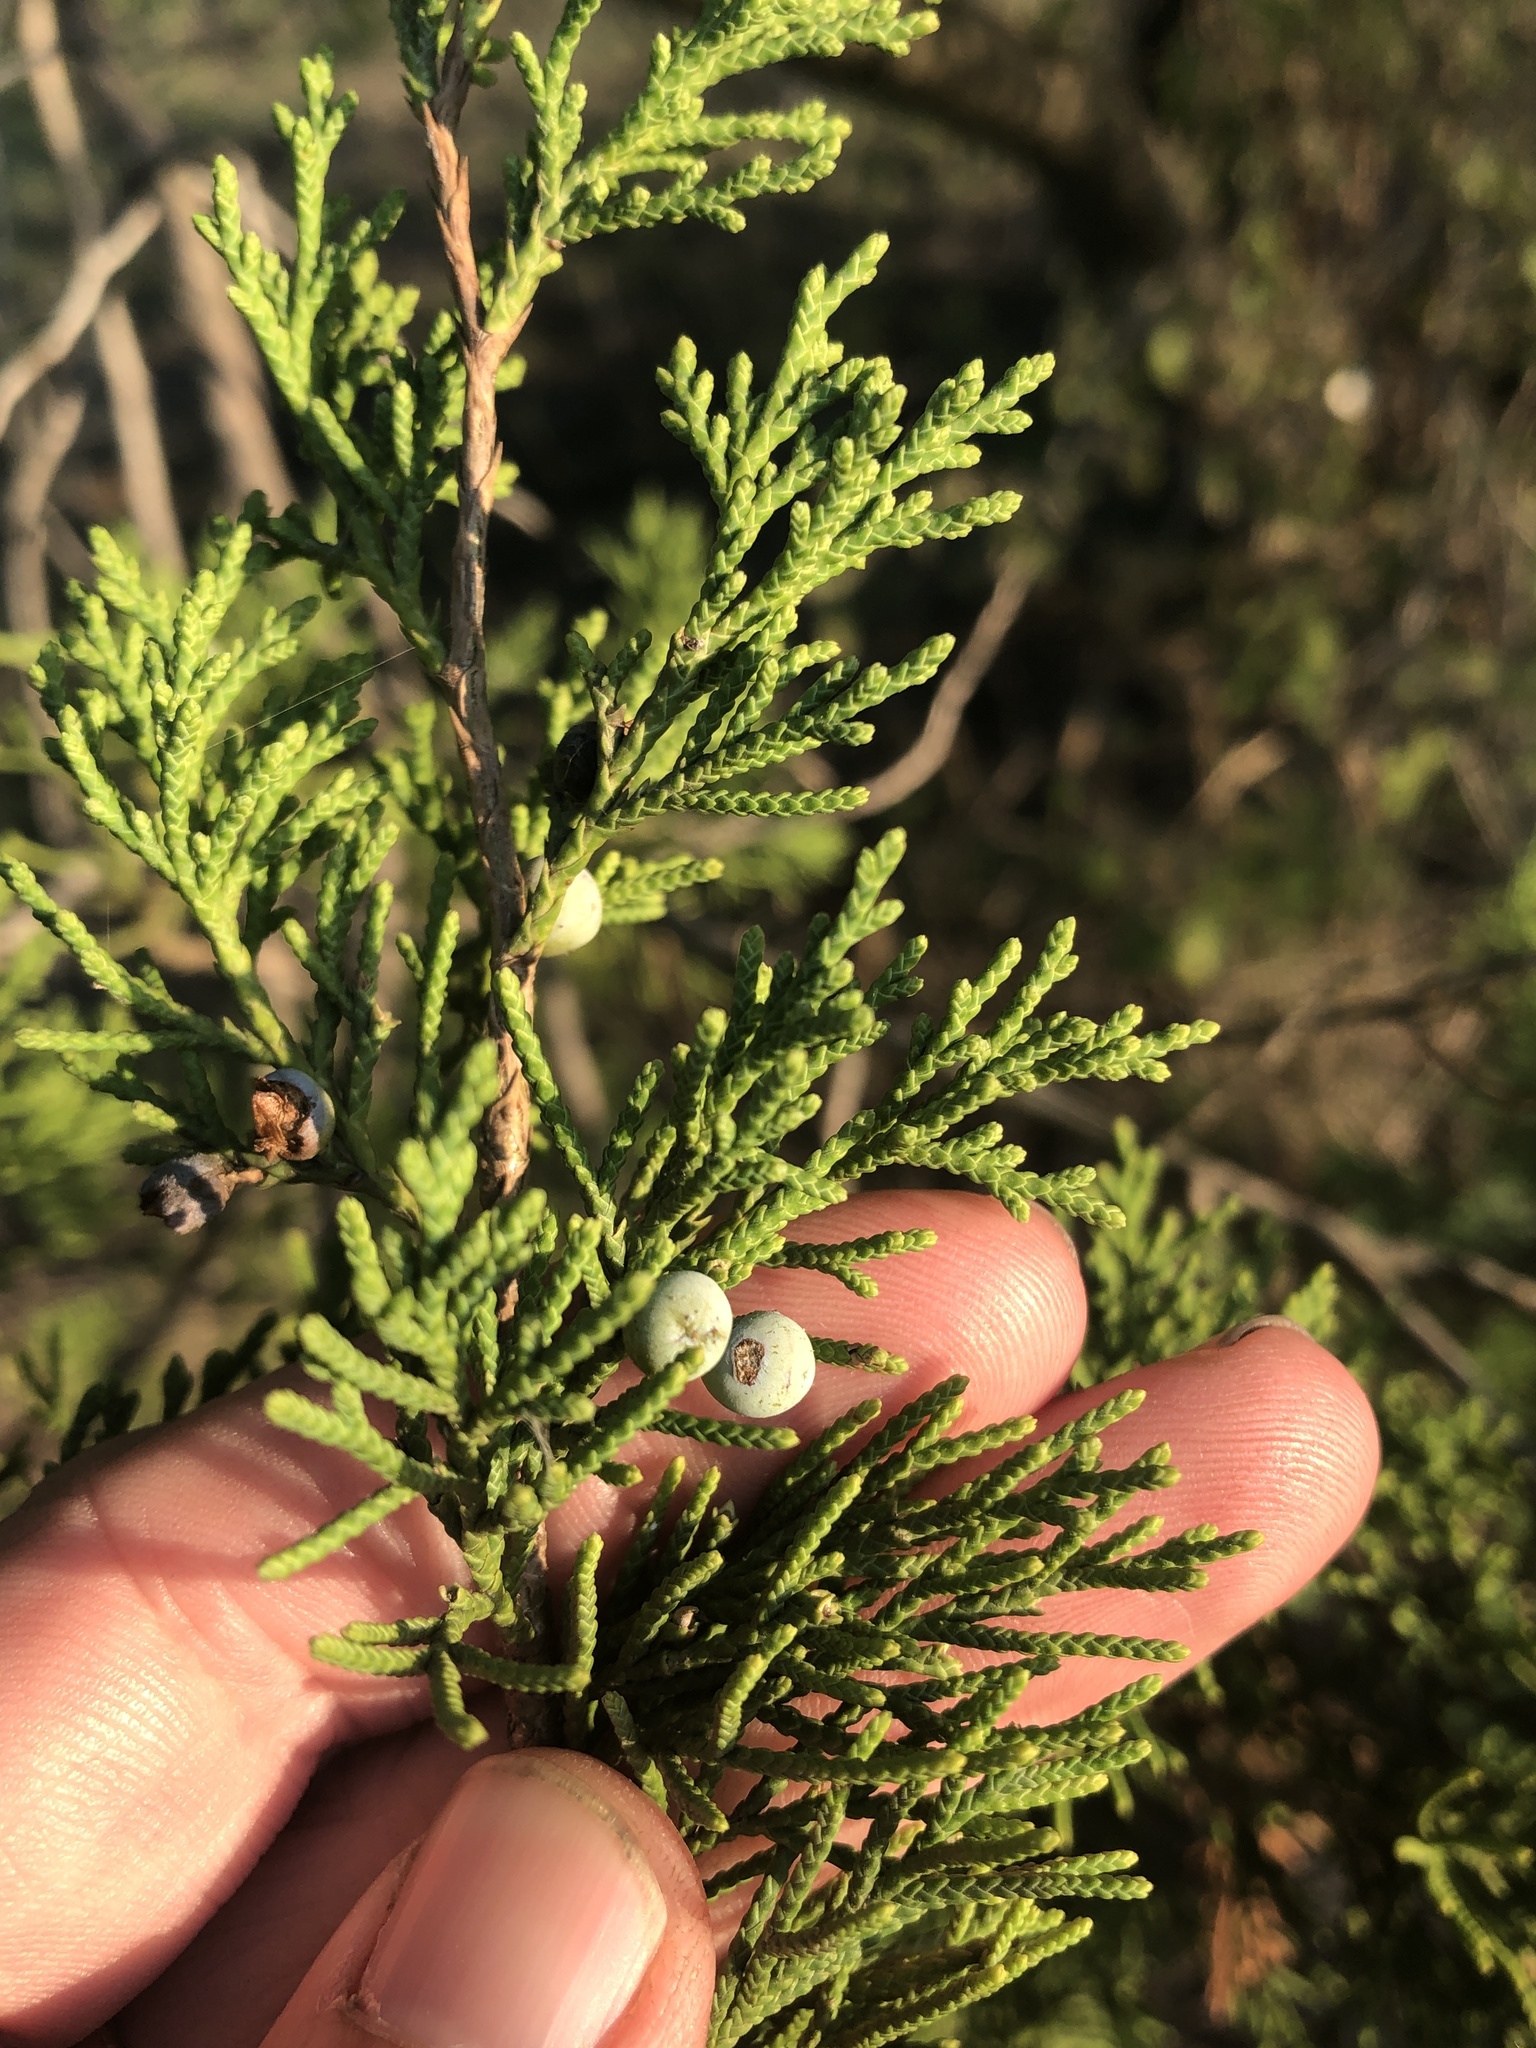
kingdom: Plantae
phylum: Tracheophyta
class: Pinopsida
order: Pinales
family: Cupressaceae
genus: Juniperus
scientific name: Juniperus virginiana
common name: Red juniper
